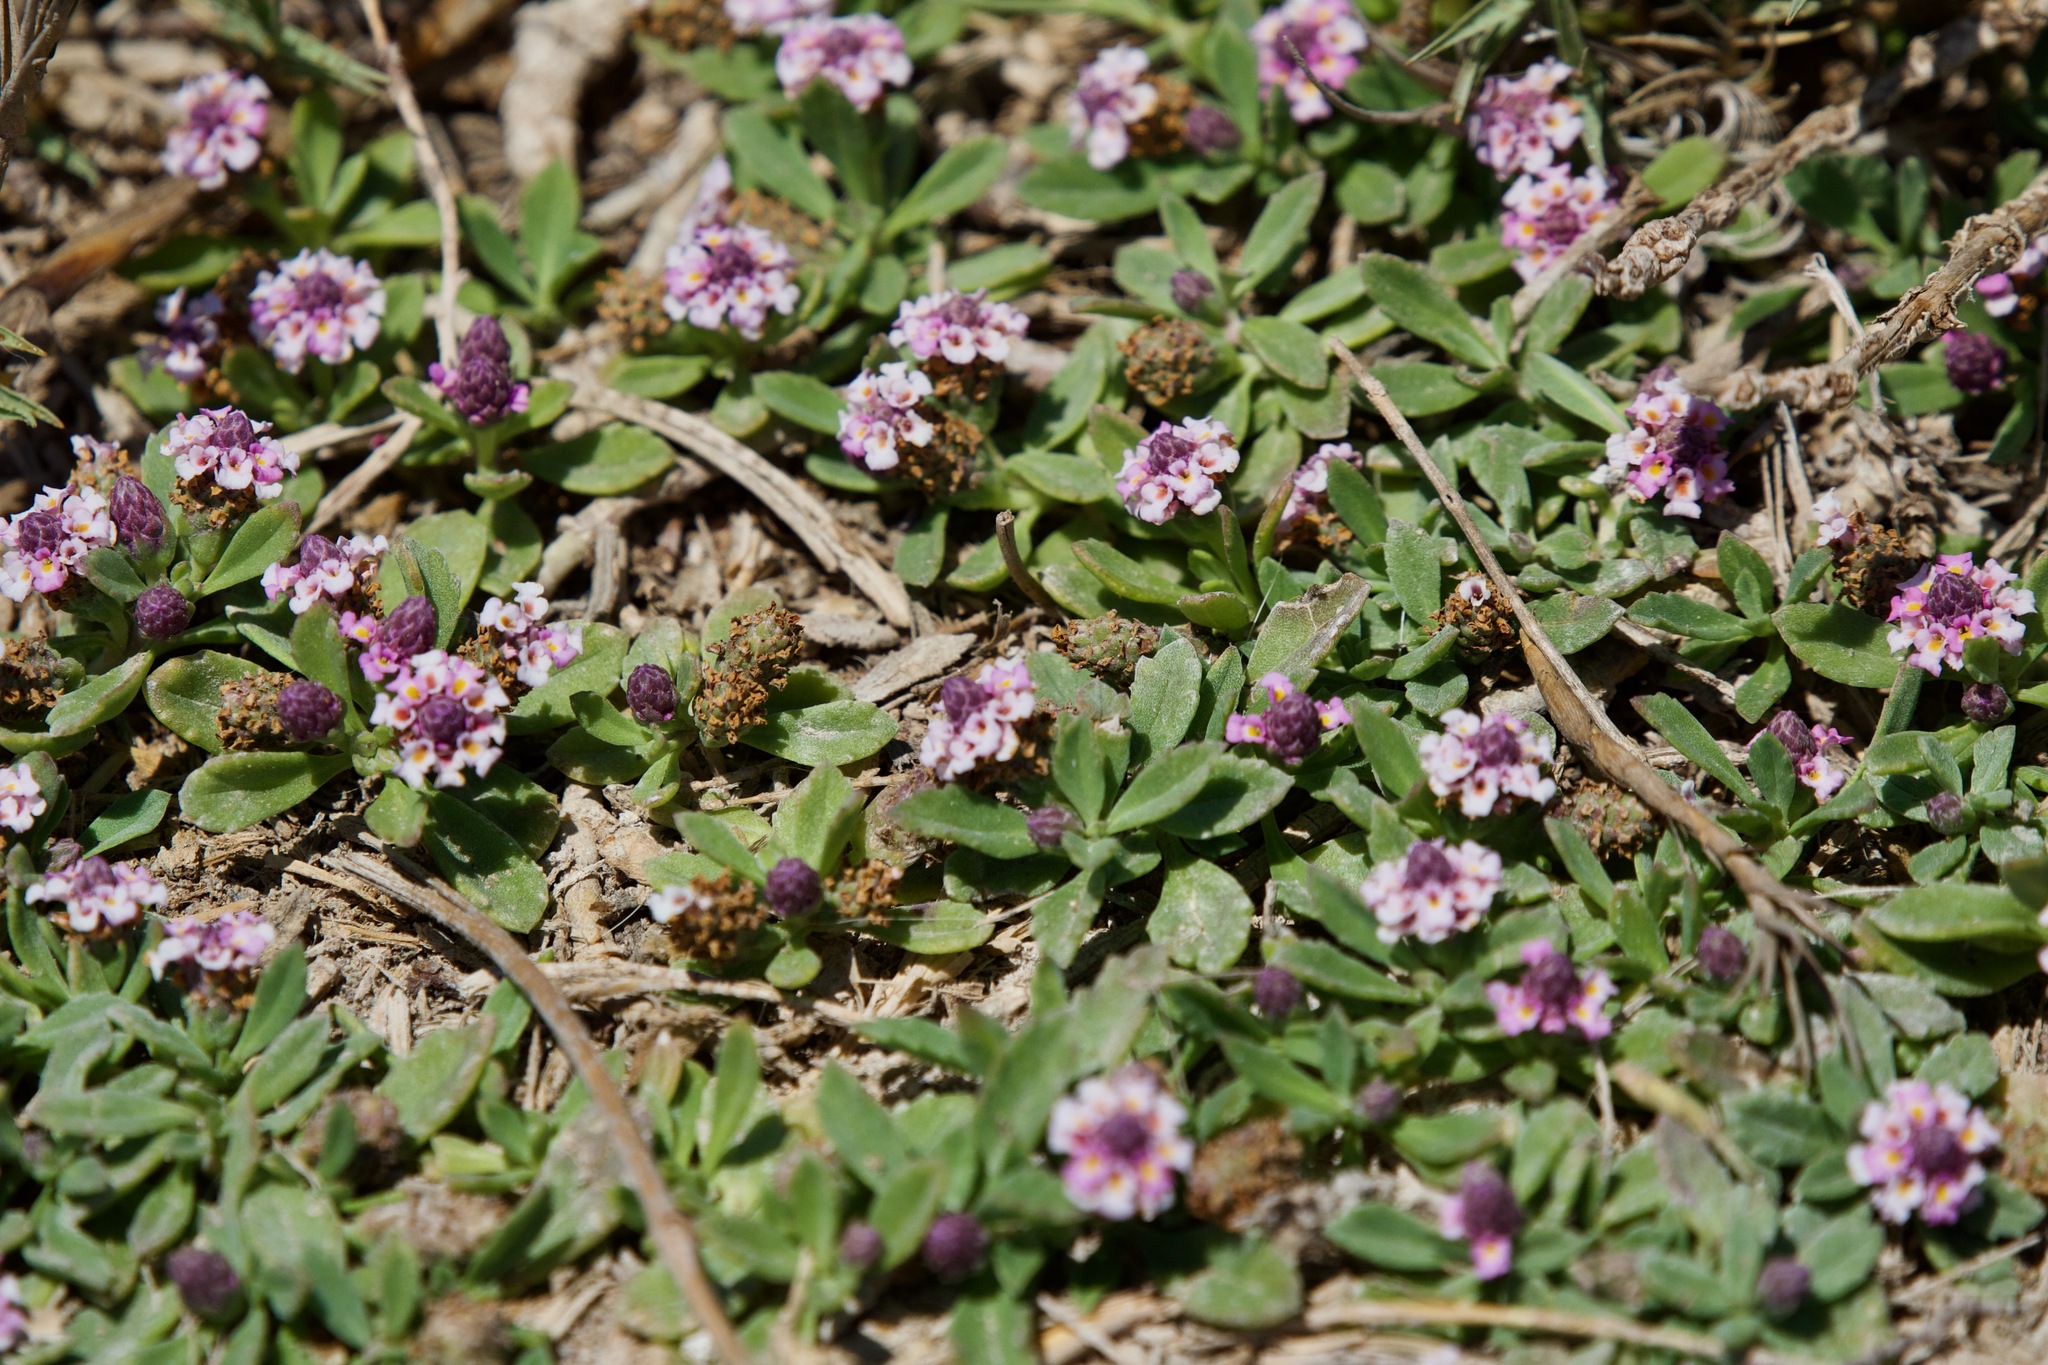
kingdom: Plantae
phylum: Tracheophyta
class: Magnoliopsida
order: Lamiales
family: Verbenaceae
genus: Phyla
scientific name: Phyla nodiflora
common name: Frogfruit
